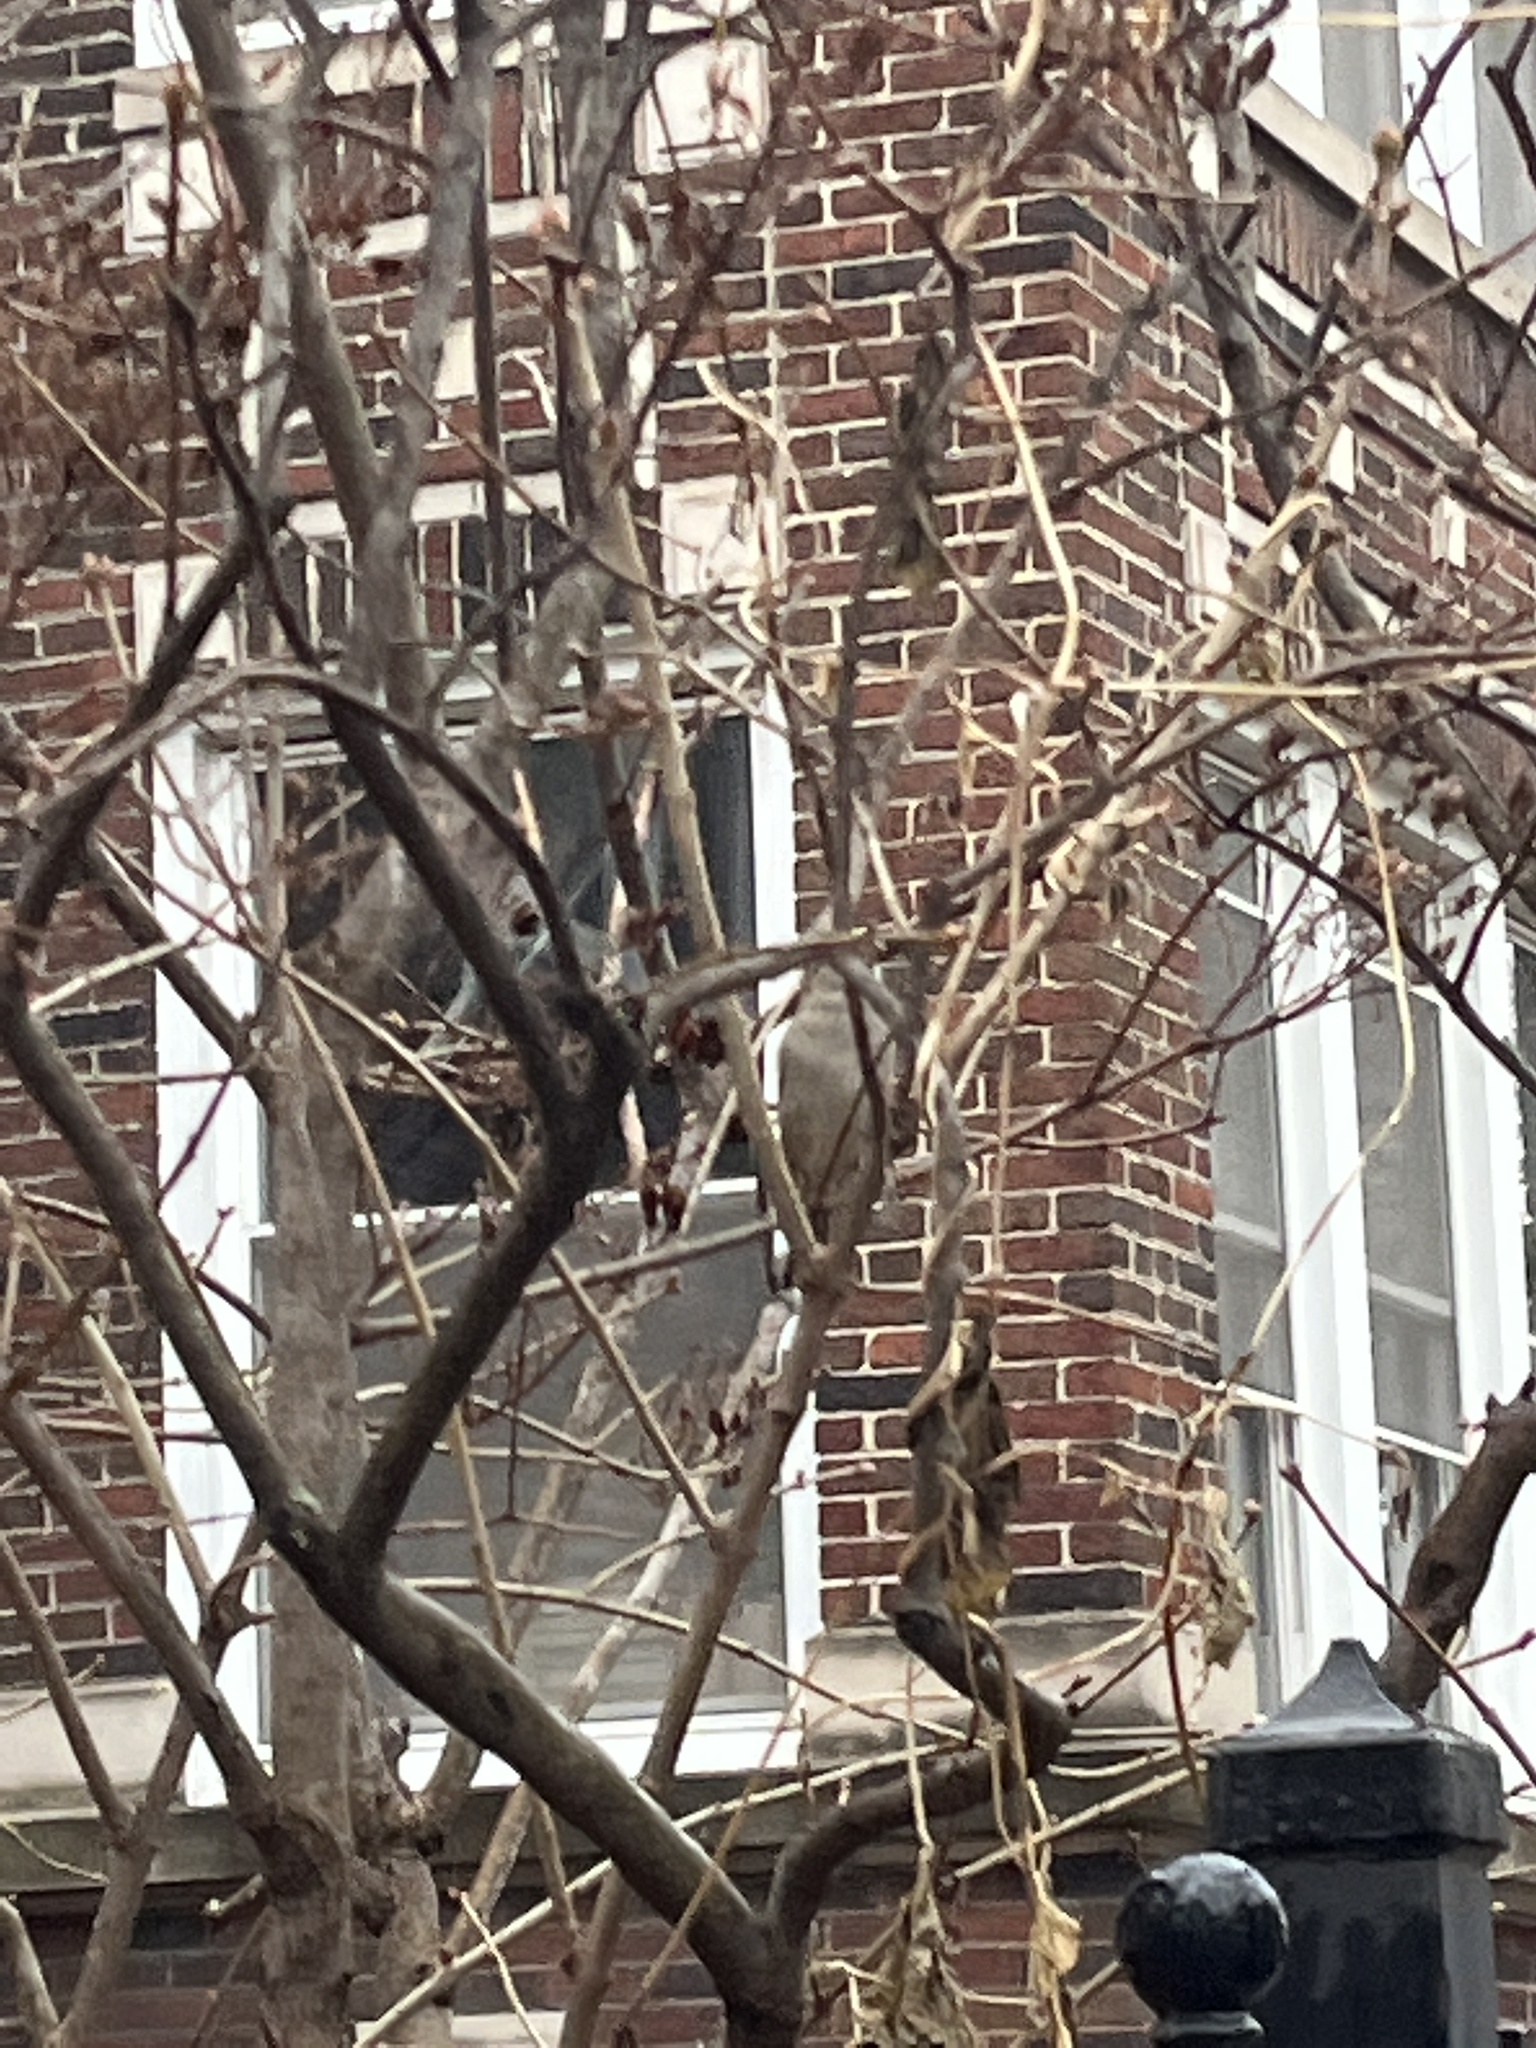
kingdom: Animalia
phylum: Chordata
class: Aves
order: Passeriformes
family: Passeridae
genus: Passer
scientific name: Passer domesticus
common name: House sparrow
